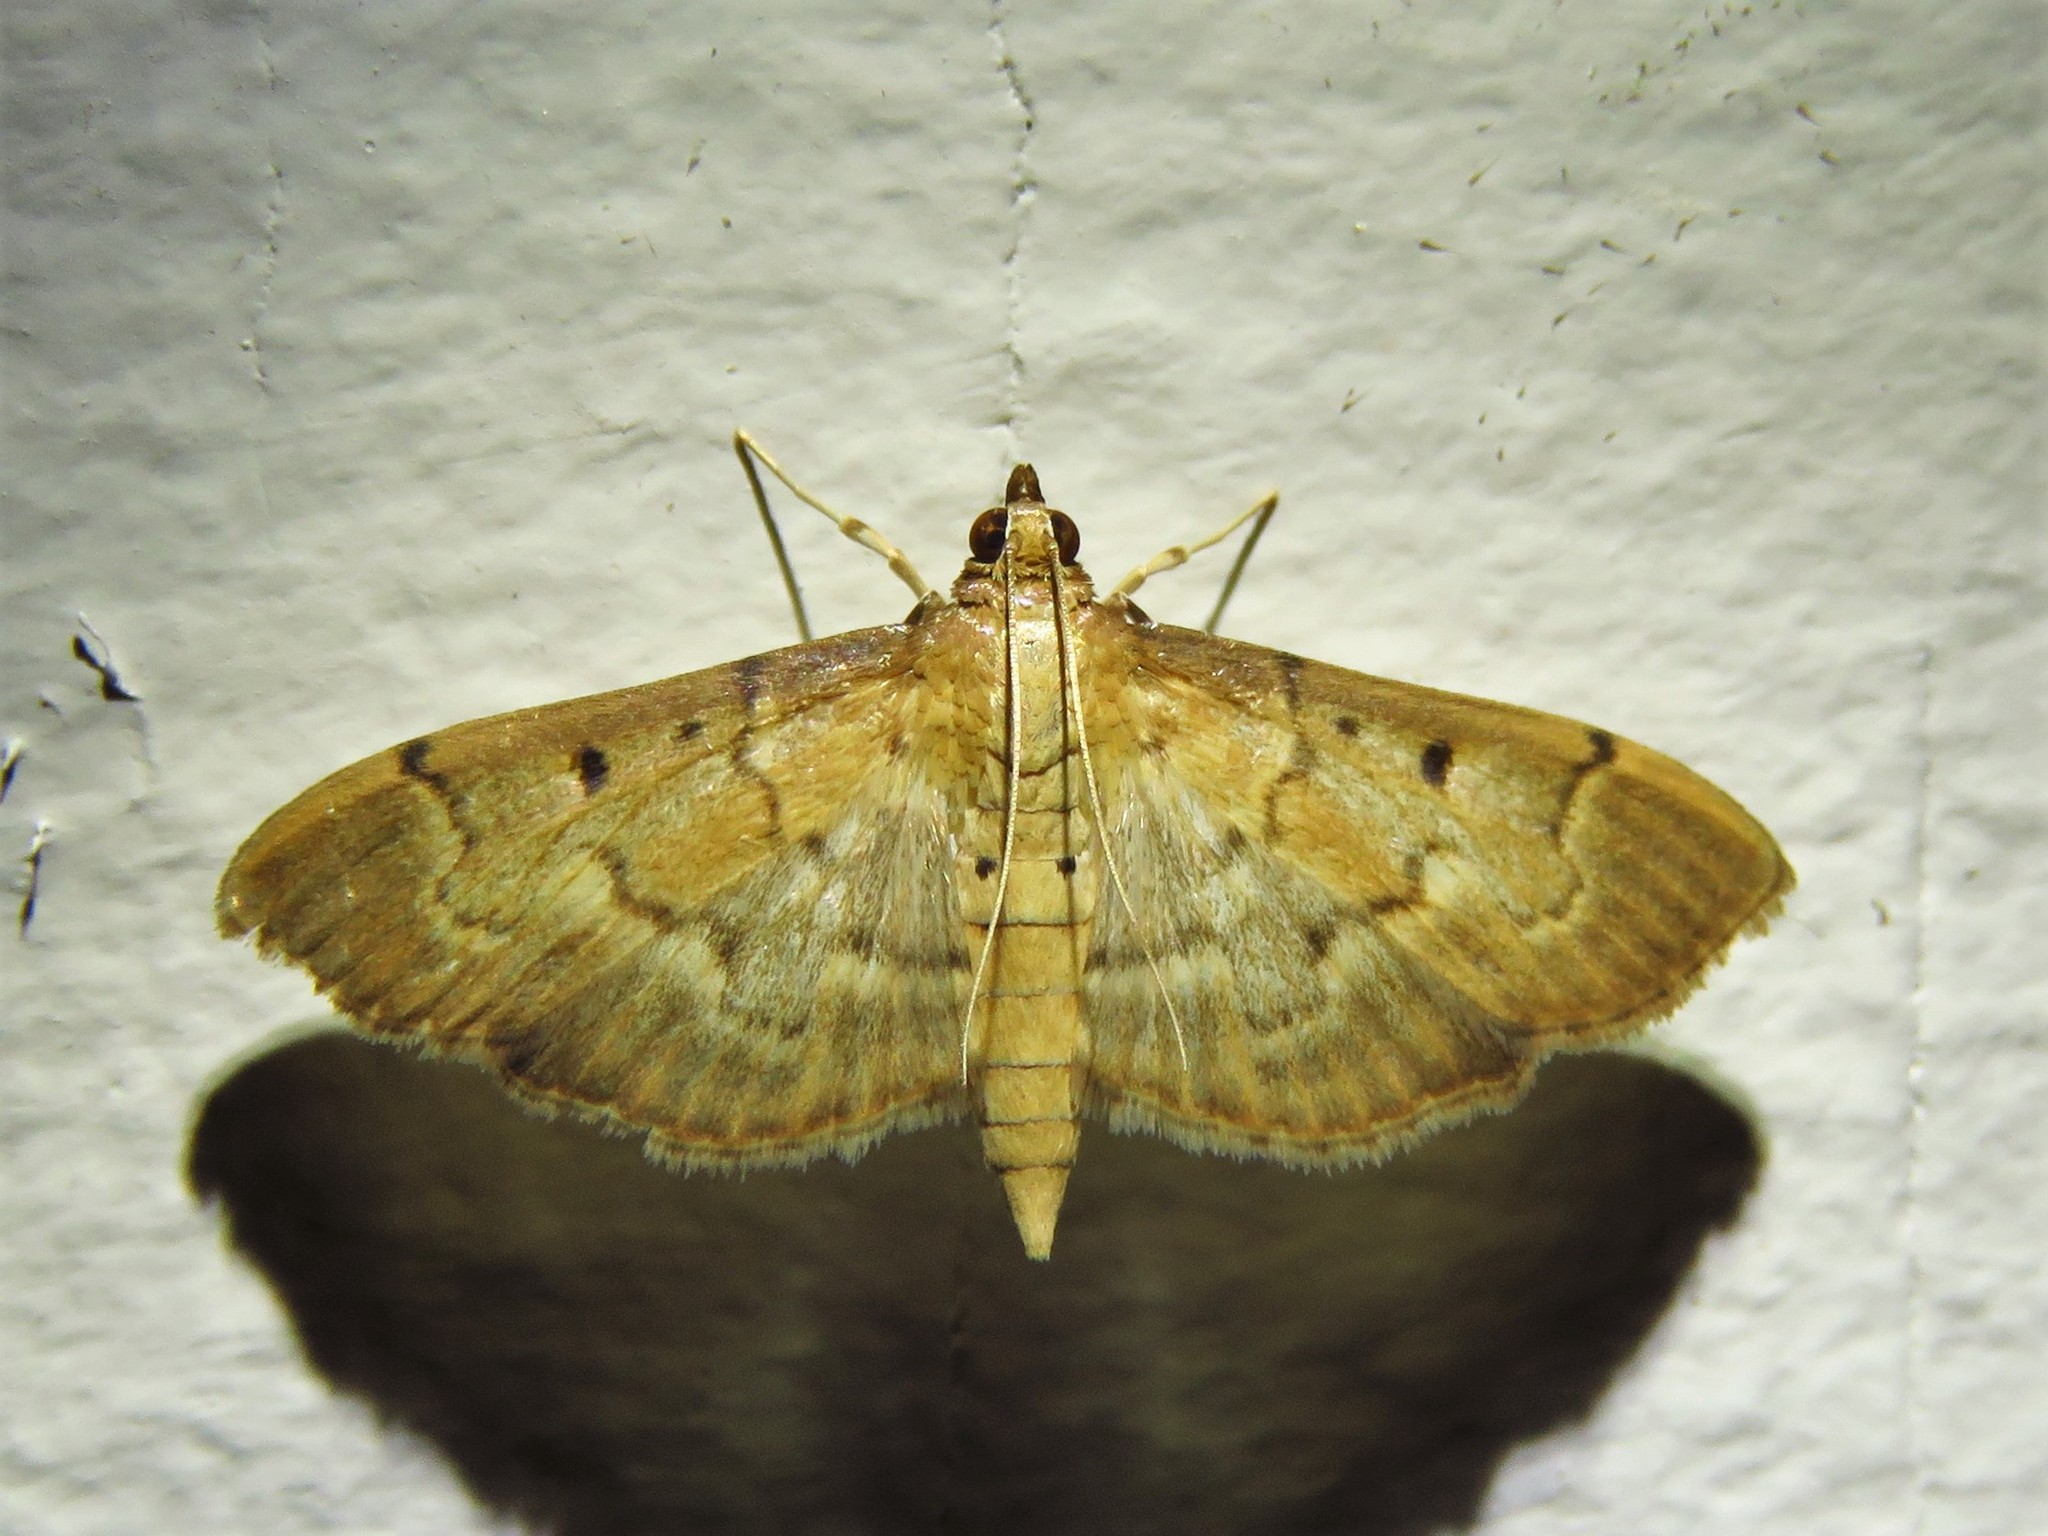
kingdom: Animalia
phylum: Arthropoda
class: Insecta
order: Lepidoptera
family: Crambidae
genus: Herpetogramma
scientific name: Herpetogramma bipunctalis
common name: Southern beet webworm
